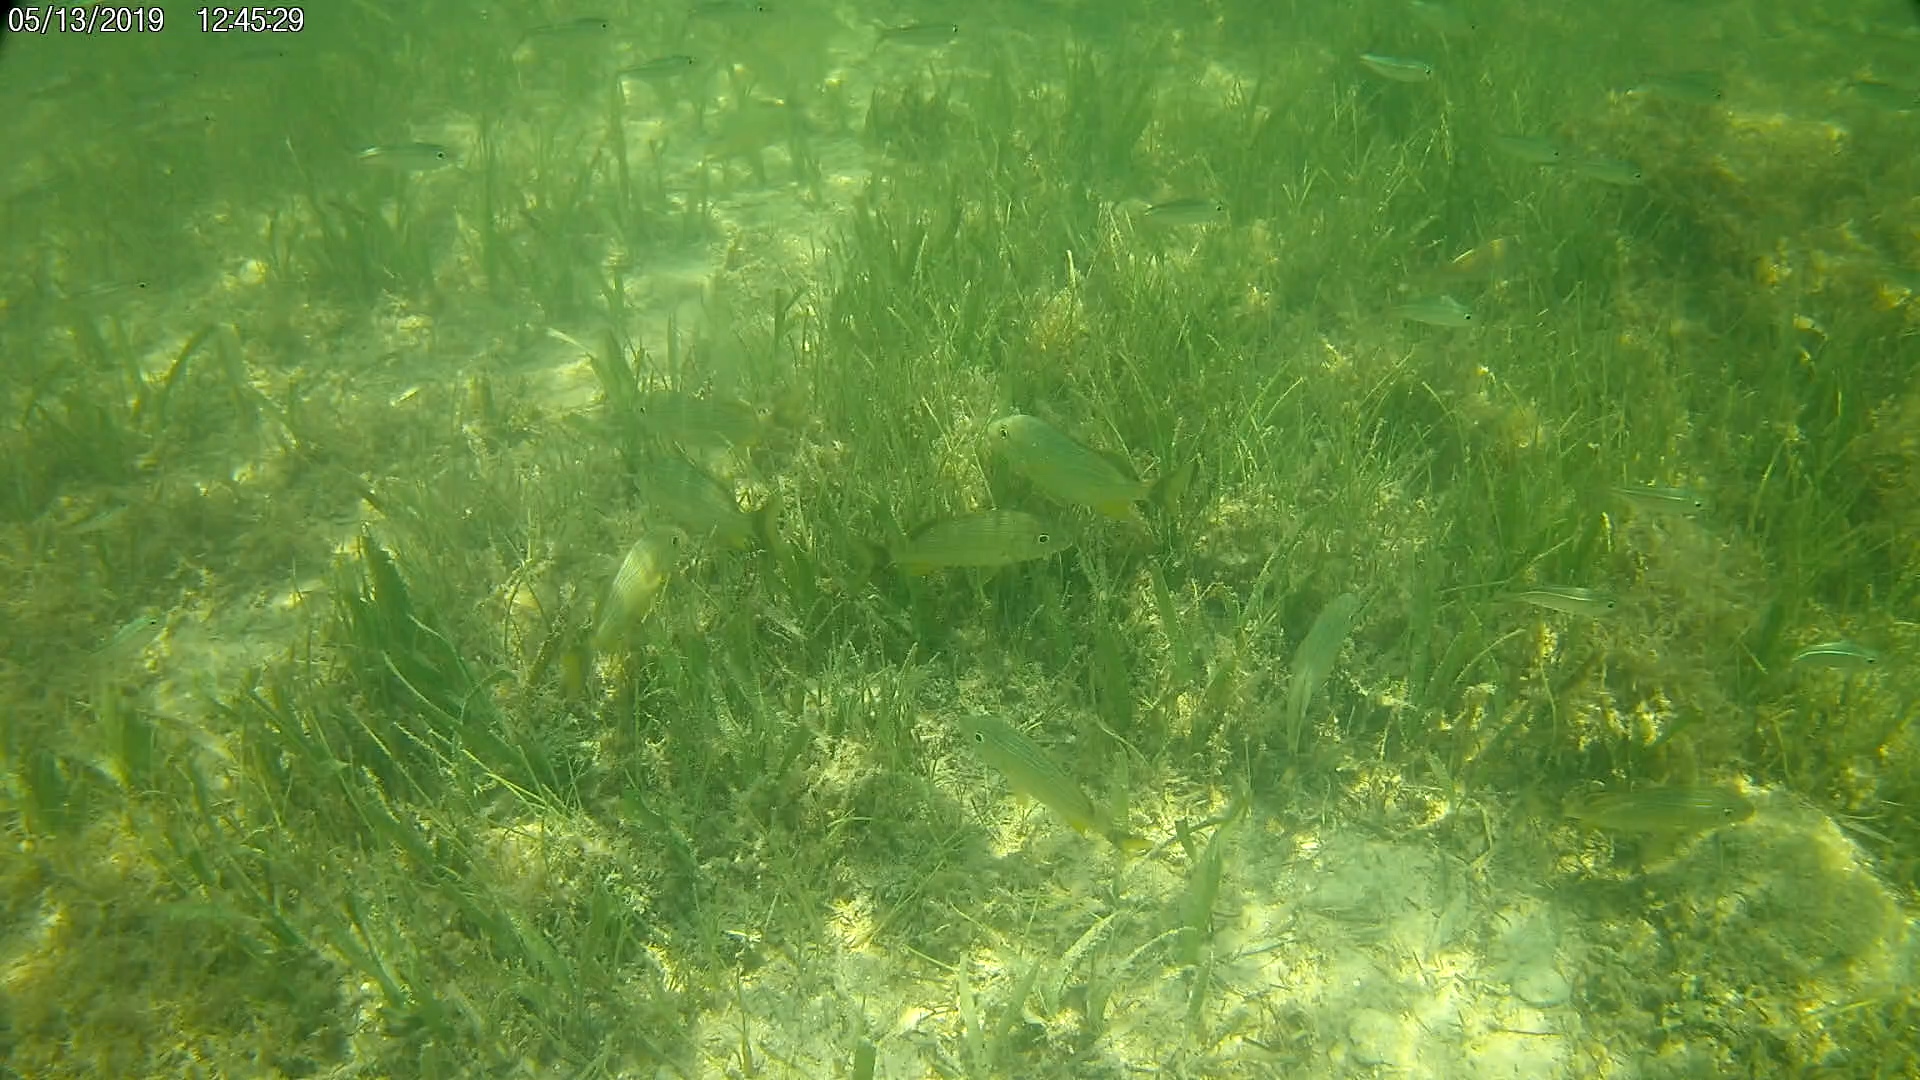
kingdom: Animalia
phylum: Chordata
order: Perciformes
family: Haemulidae
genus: Haemulon
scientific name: Haemulon sciurus
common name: Bluestriped grunt
